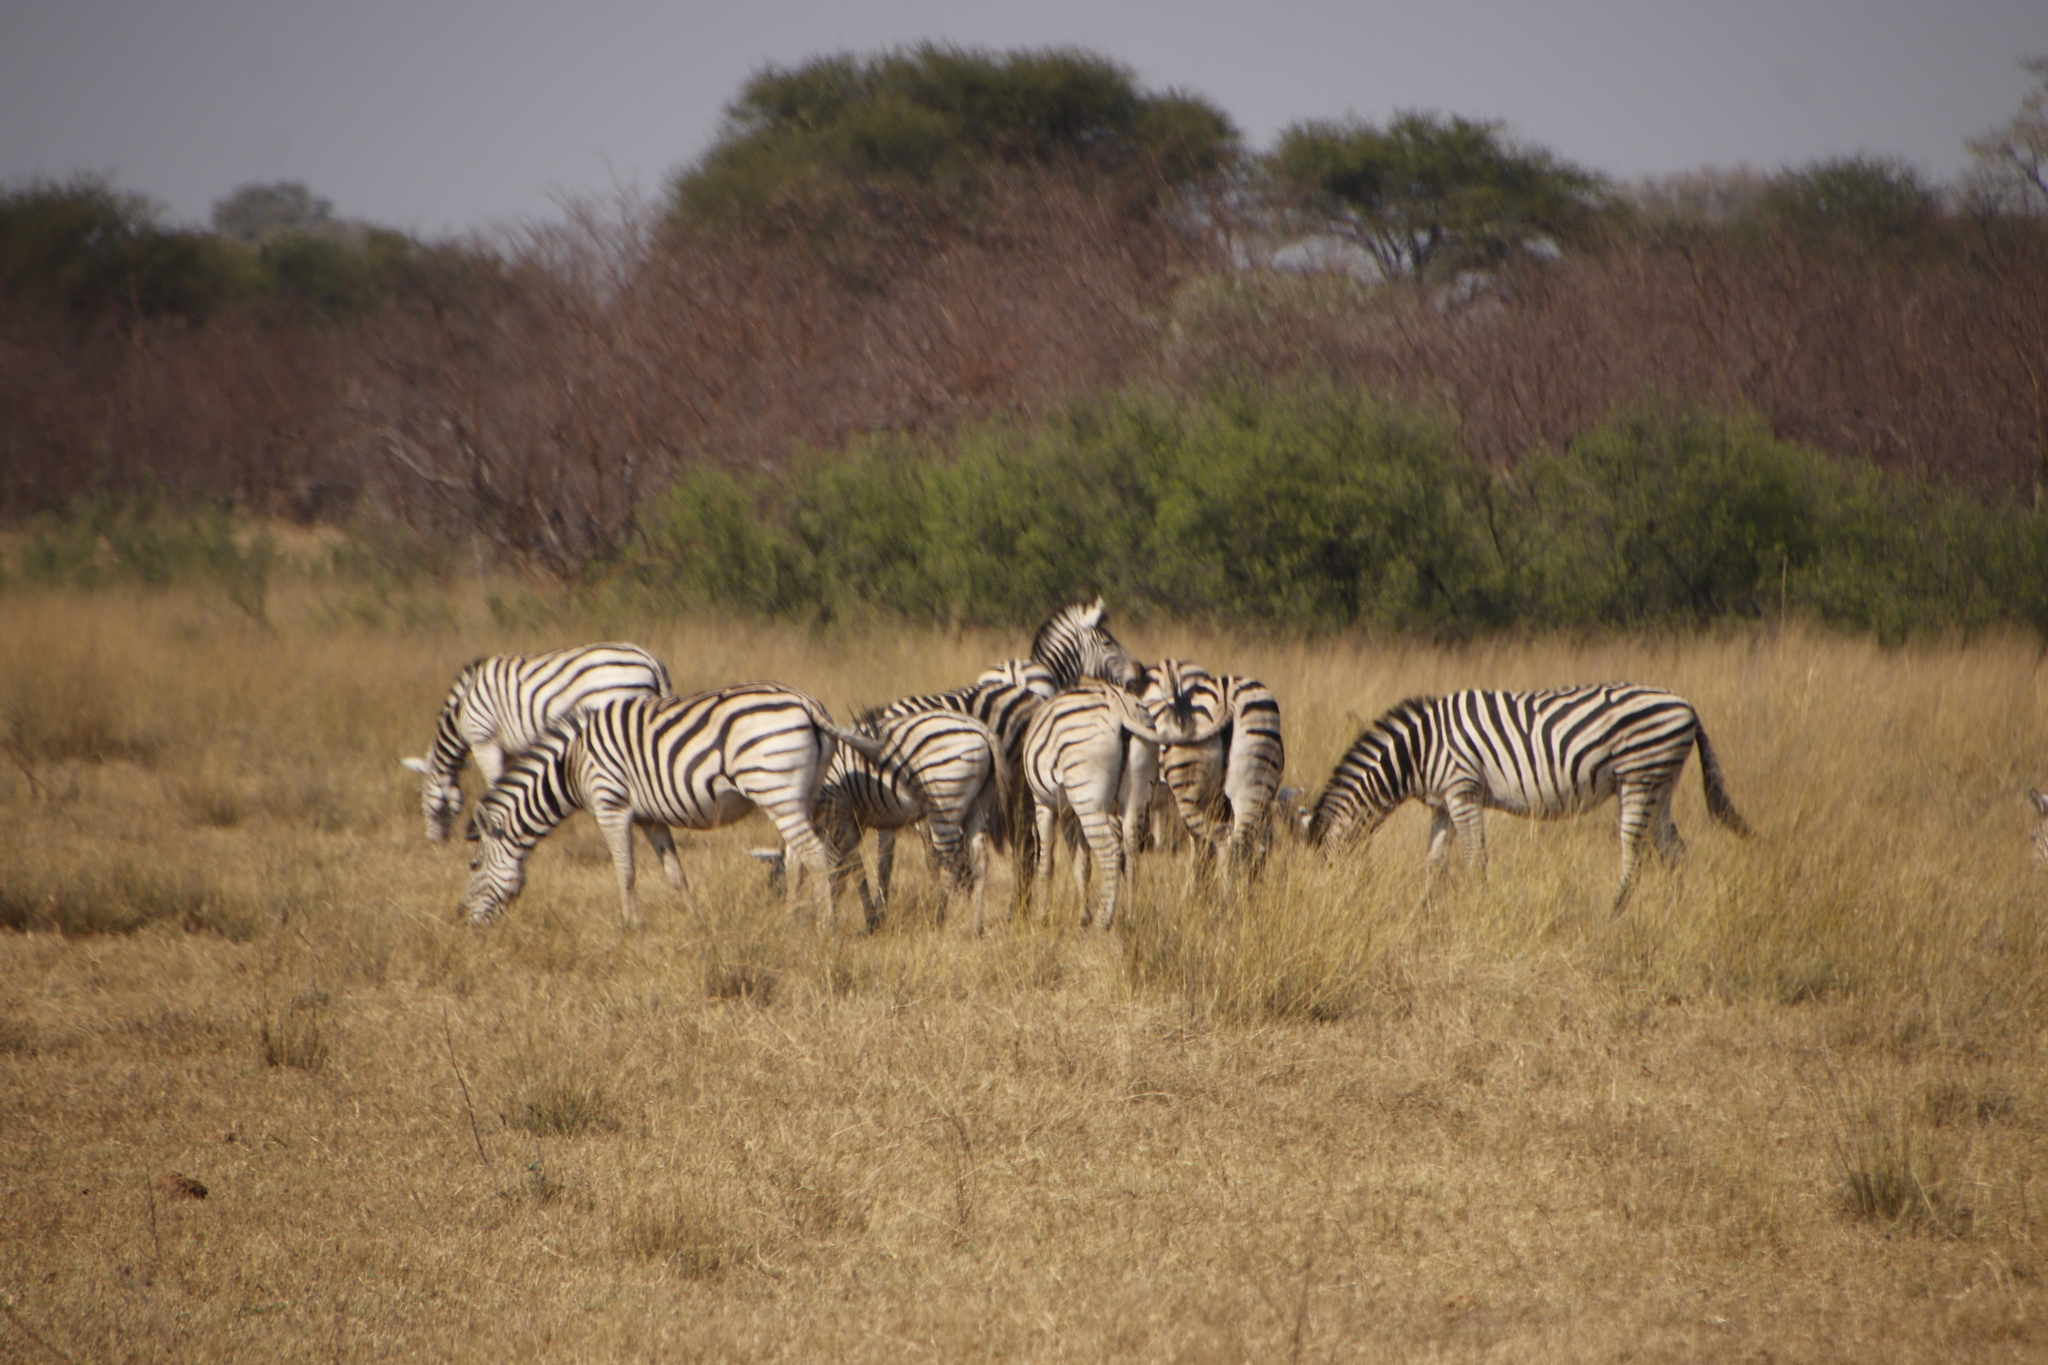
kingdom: Animalia
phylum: Chordata
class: Mammalia
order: Perissodactyla
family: Equidae
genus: Equus
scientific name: Equus quagga
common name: Plains zebra
